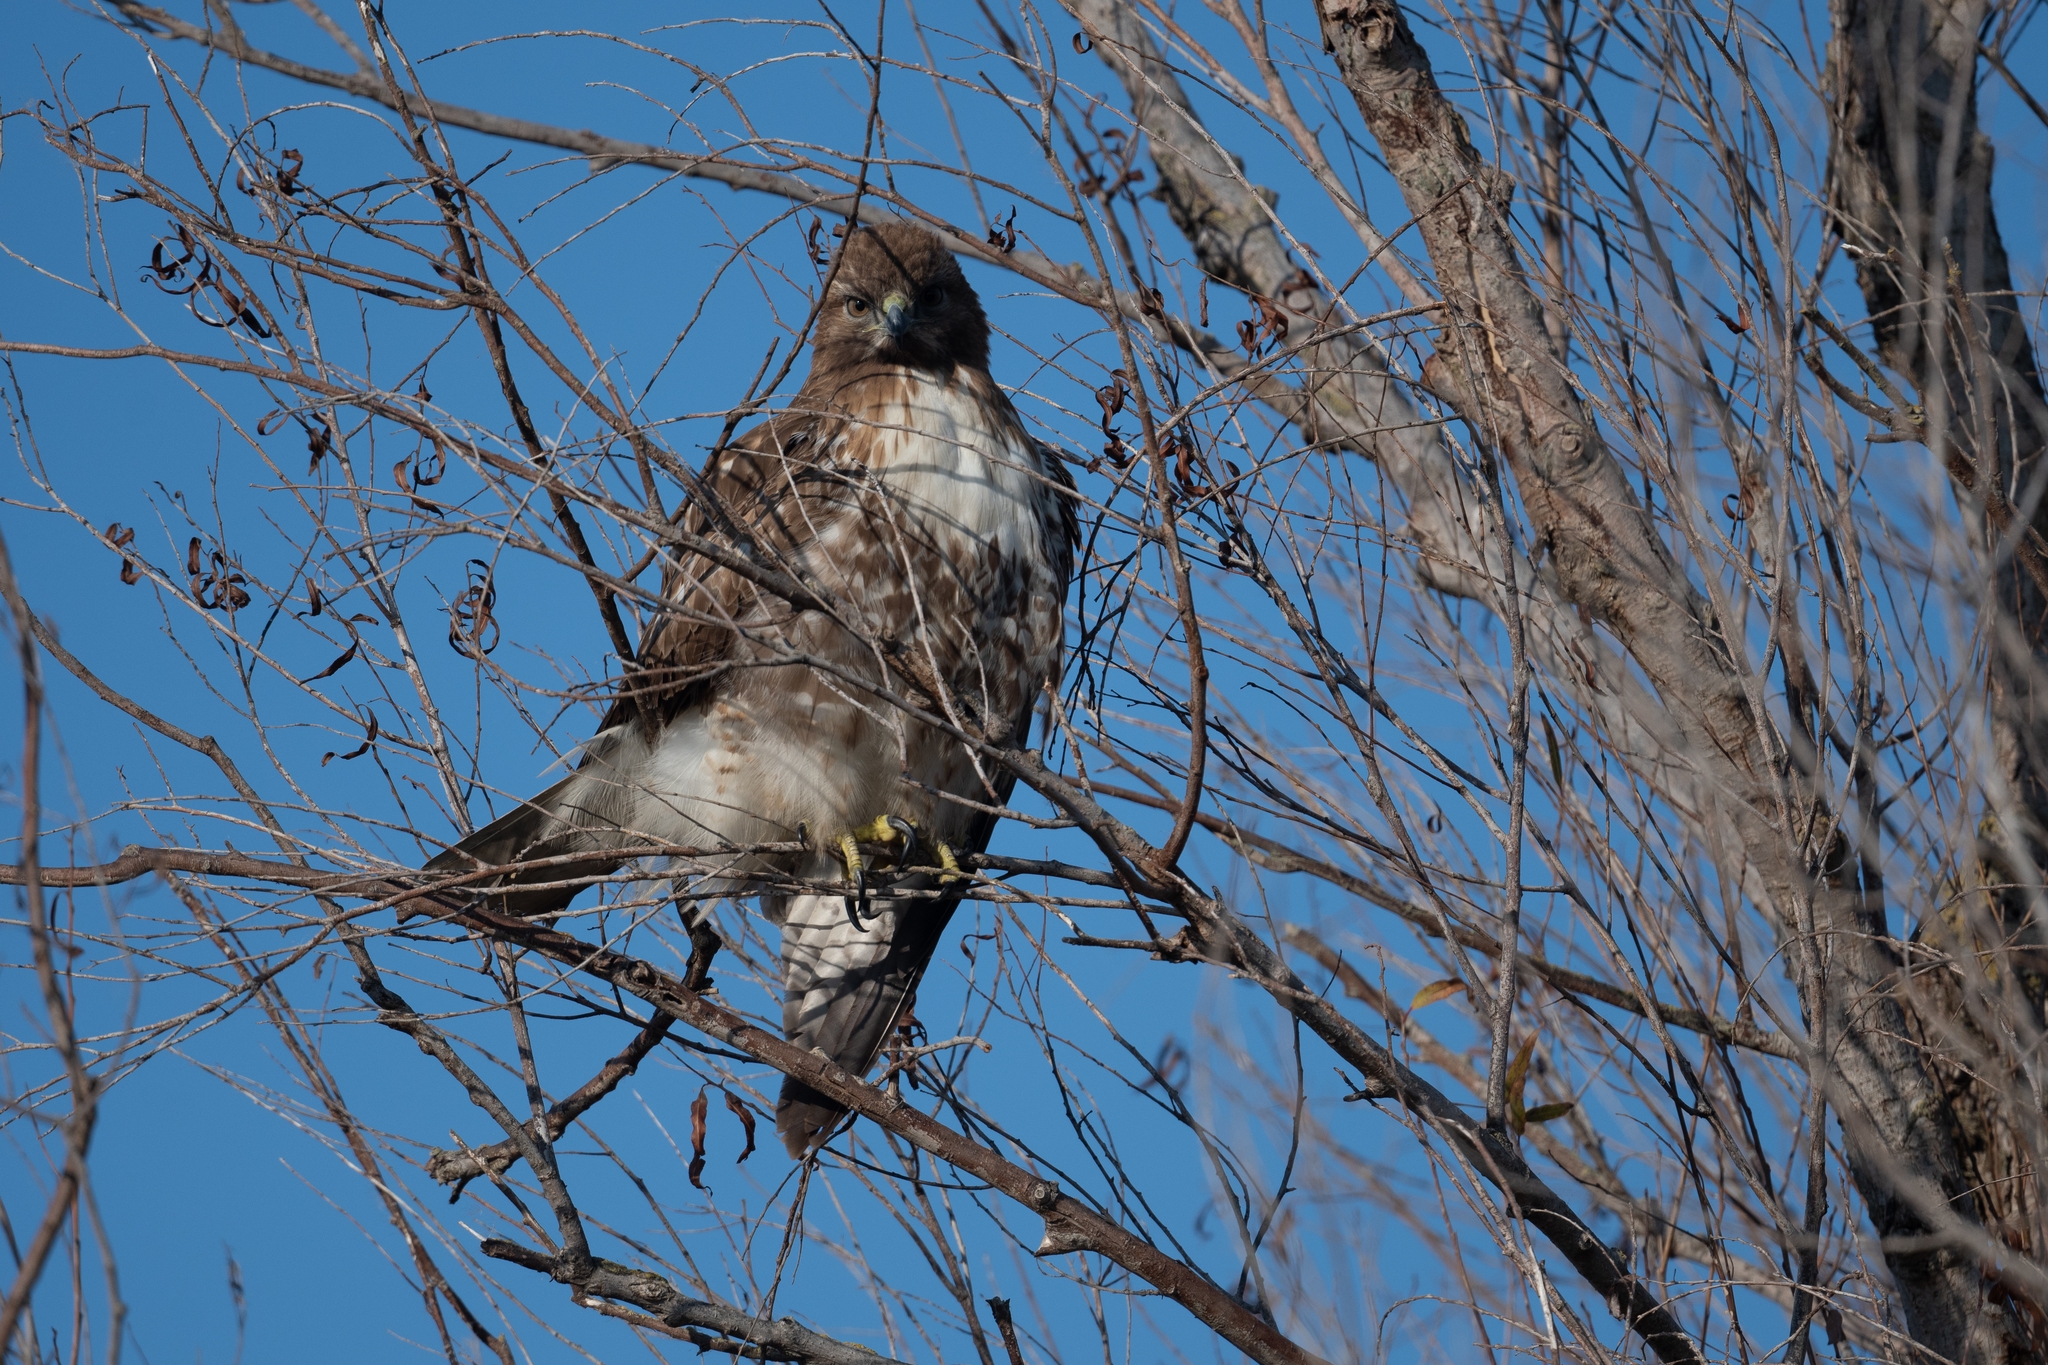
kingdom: Animalia
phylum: Chordata
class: Aves
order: Accipitriformes
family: Accipitridae
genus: Buteo
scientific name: Buteo jamaicensis
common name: Red-tailed hawk
